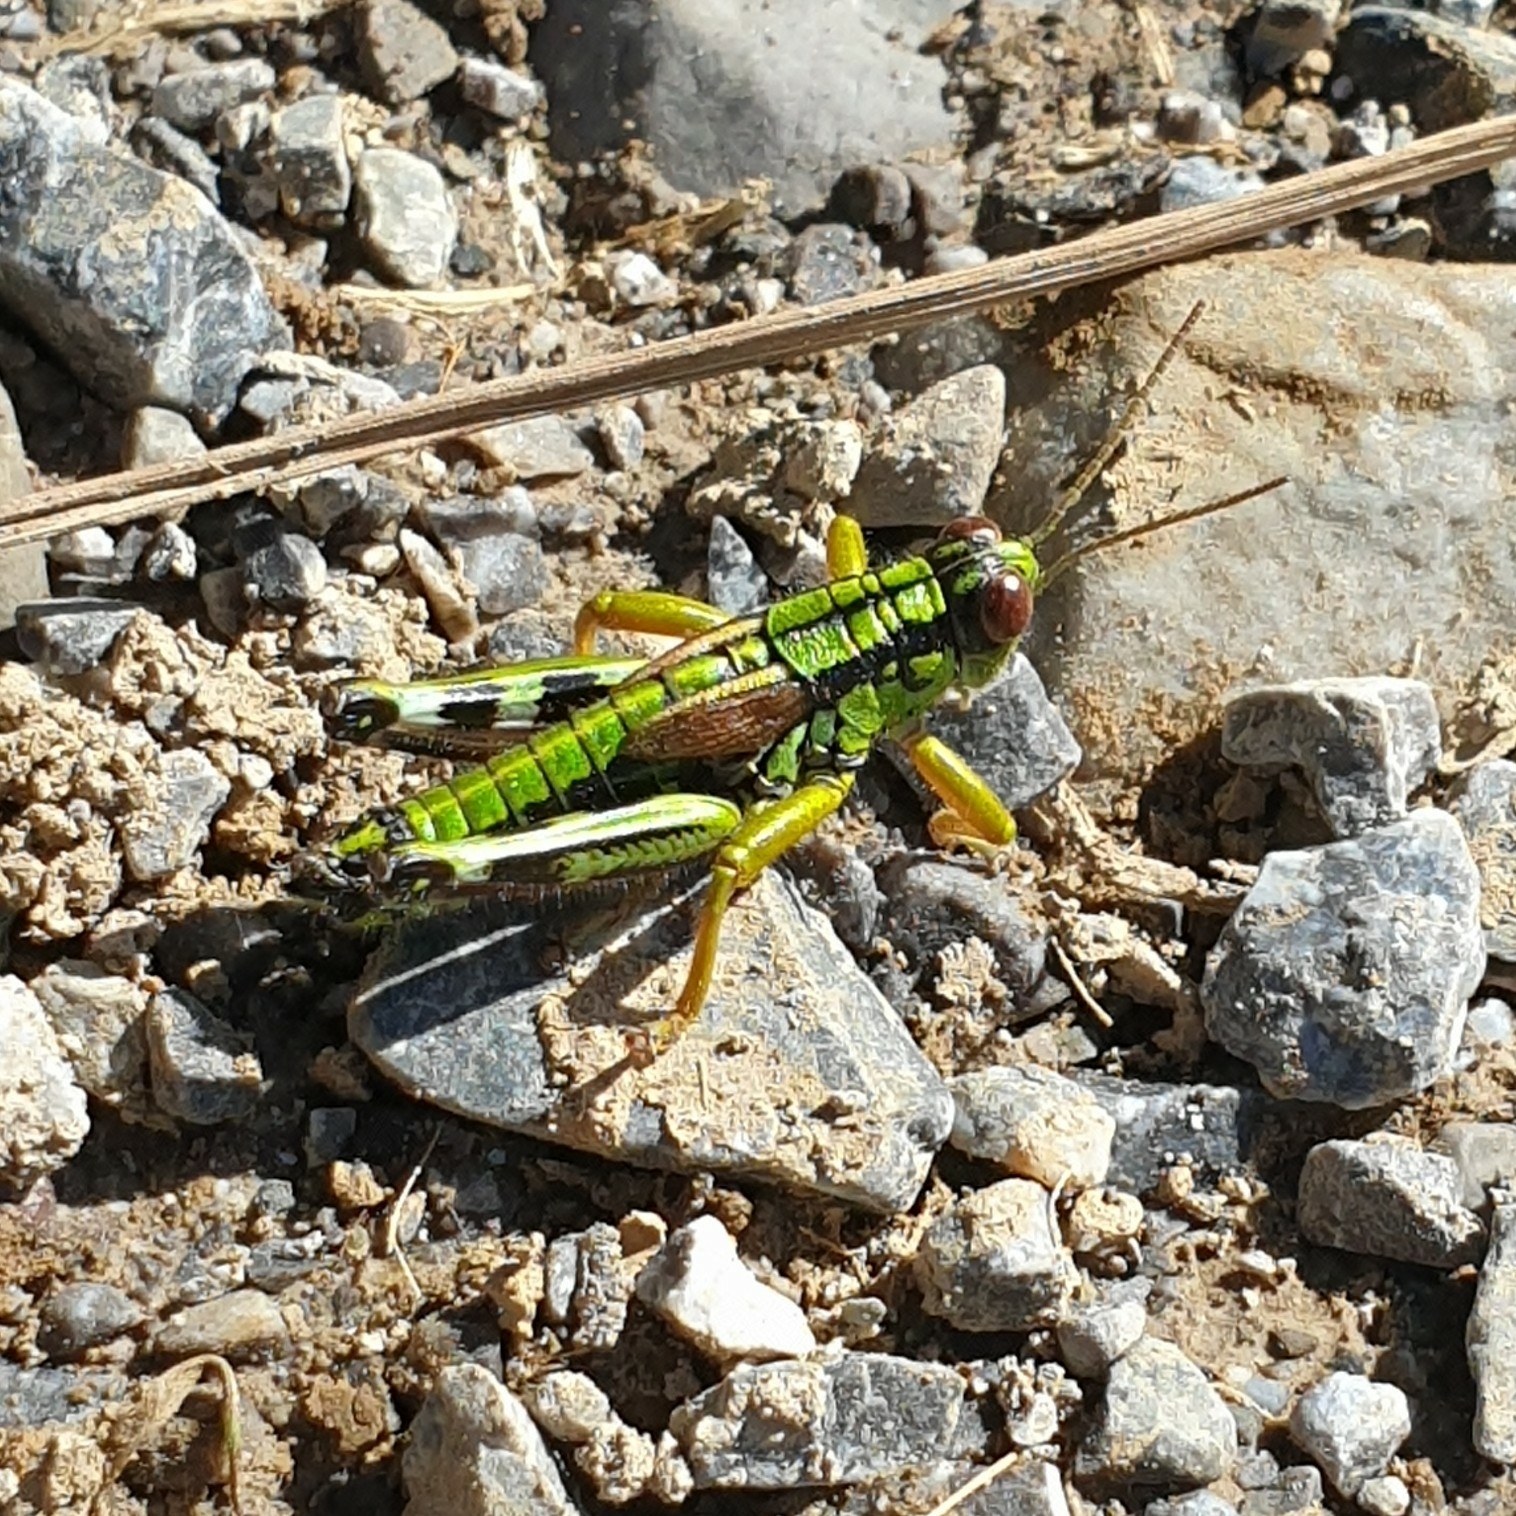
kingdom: Animalia
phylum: Arthropoda
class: Insecta
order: Orthoptera
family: Acrididae
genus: Miramella
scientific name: Miramella alpina
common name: Green mountain grasshopper
